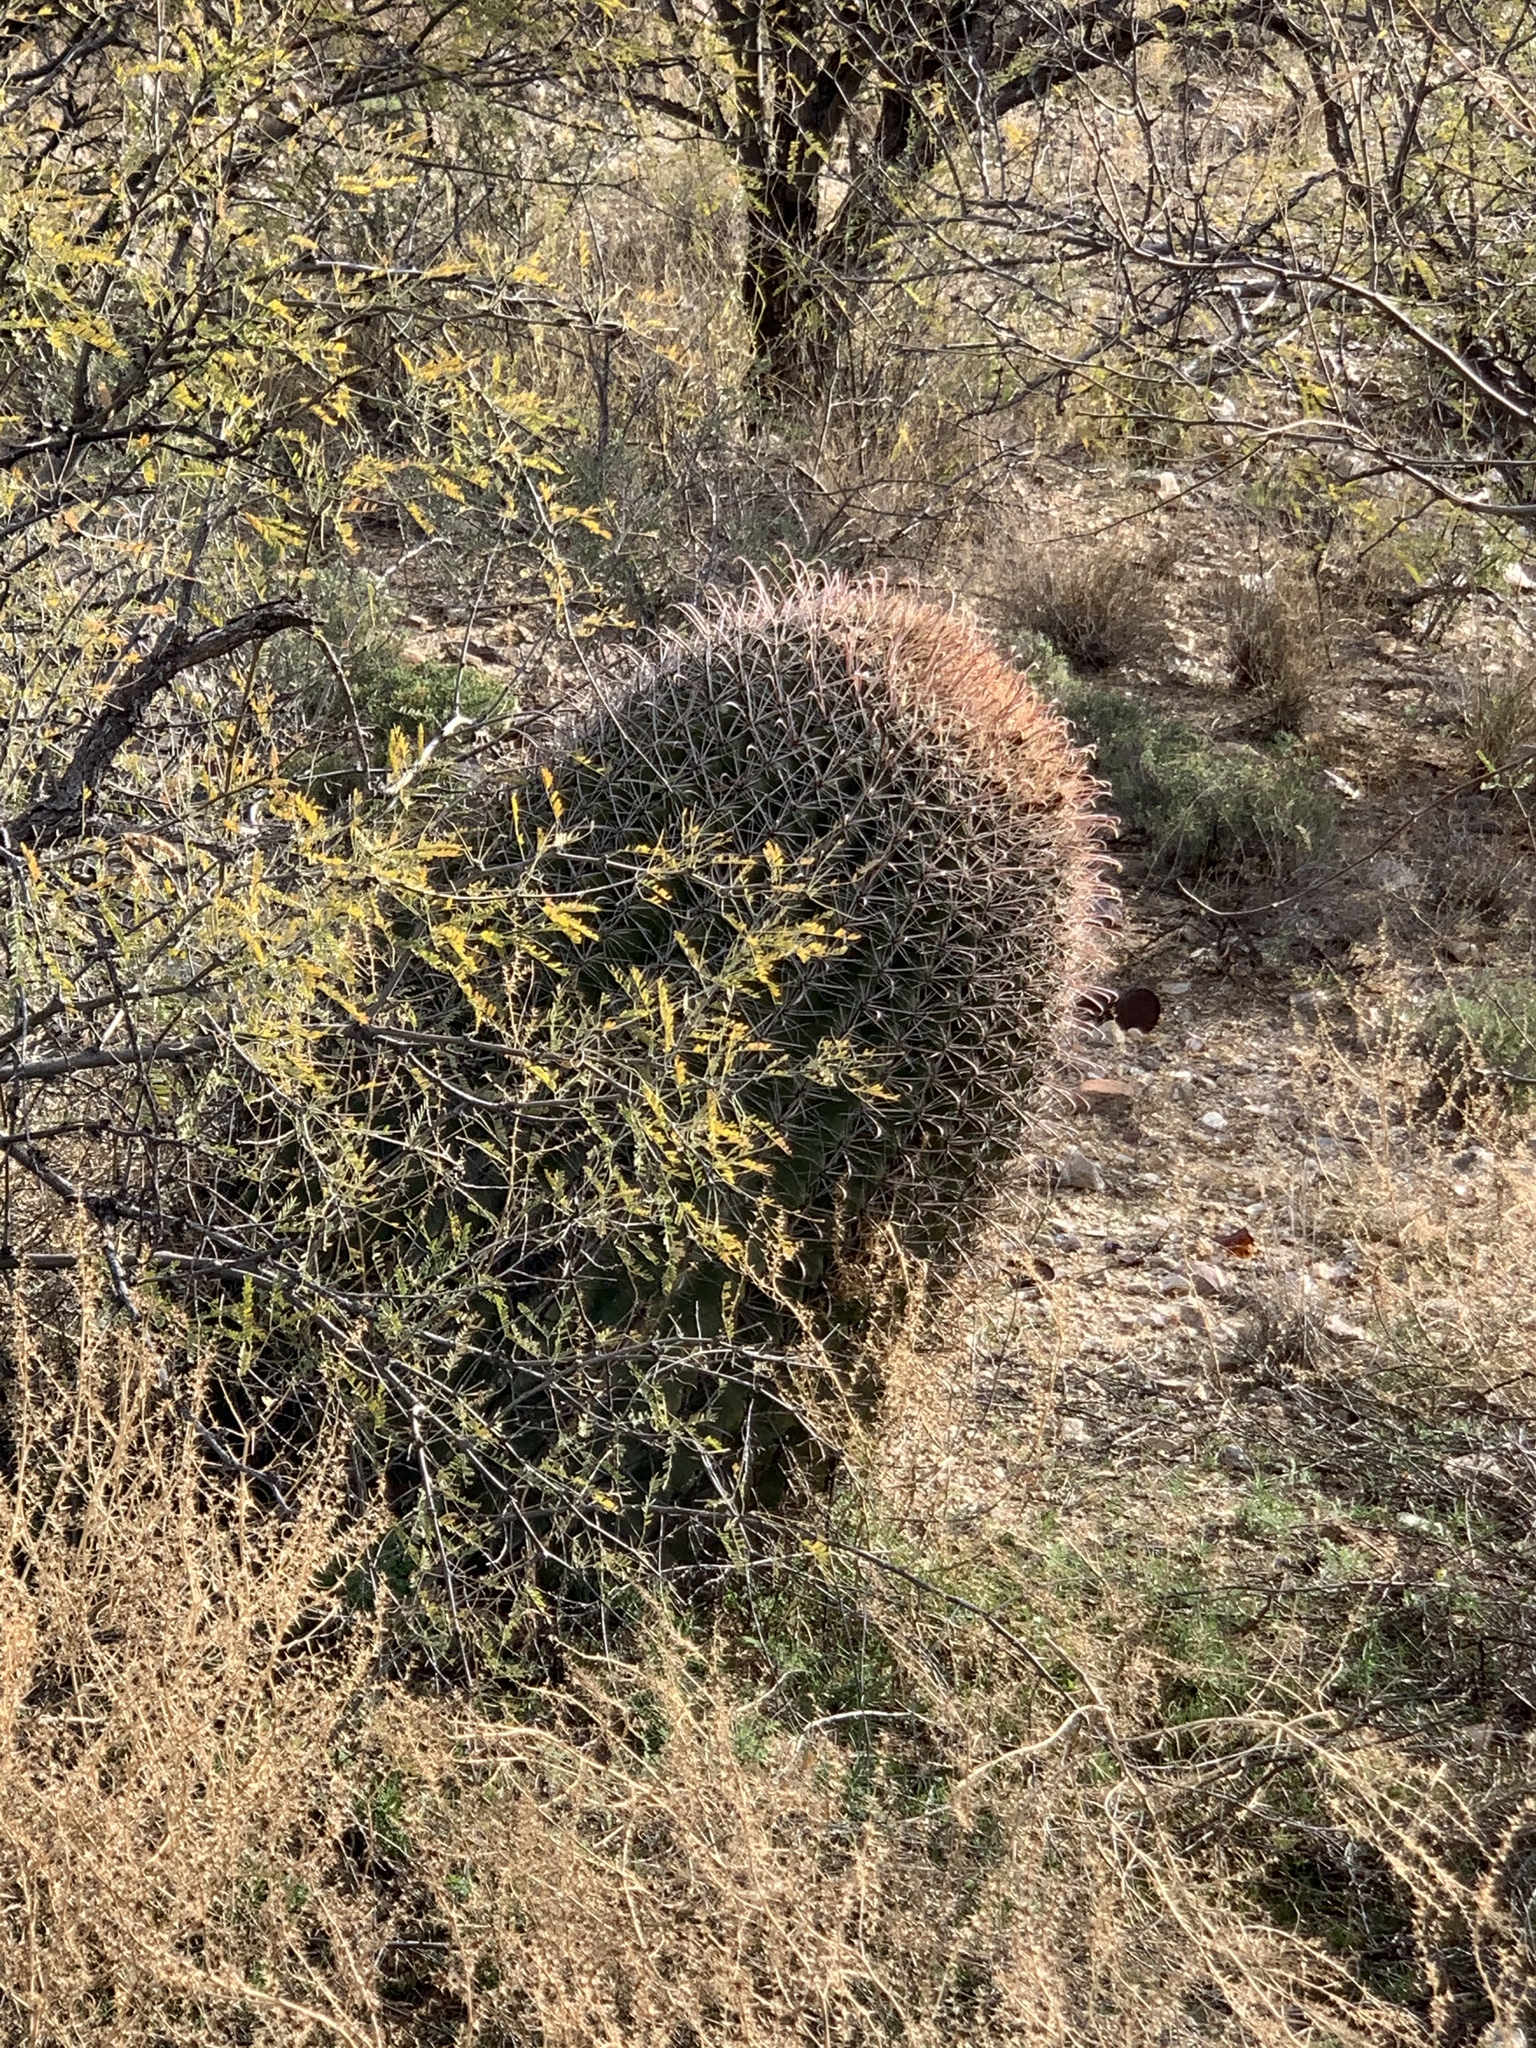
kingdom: Plantae
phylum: Tracheophyta
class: Magnoliopsida
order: Caryophyllales
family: Cactaceae
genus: Ferocactus
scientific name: Ferocactus wislizeni
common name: Candy barrel cactus
